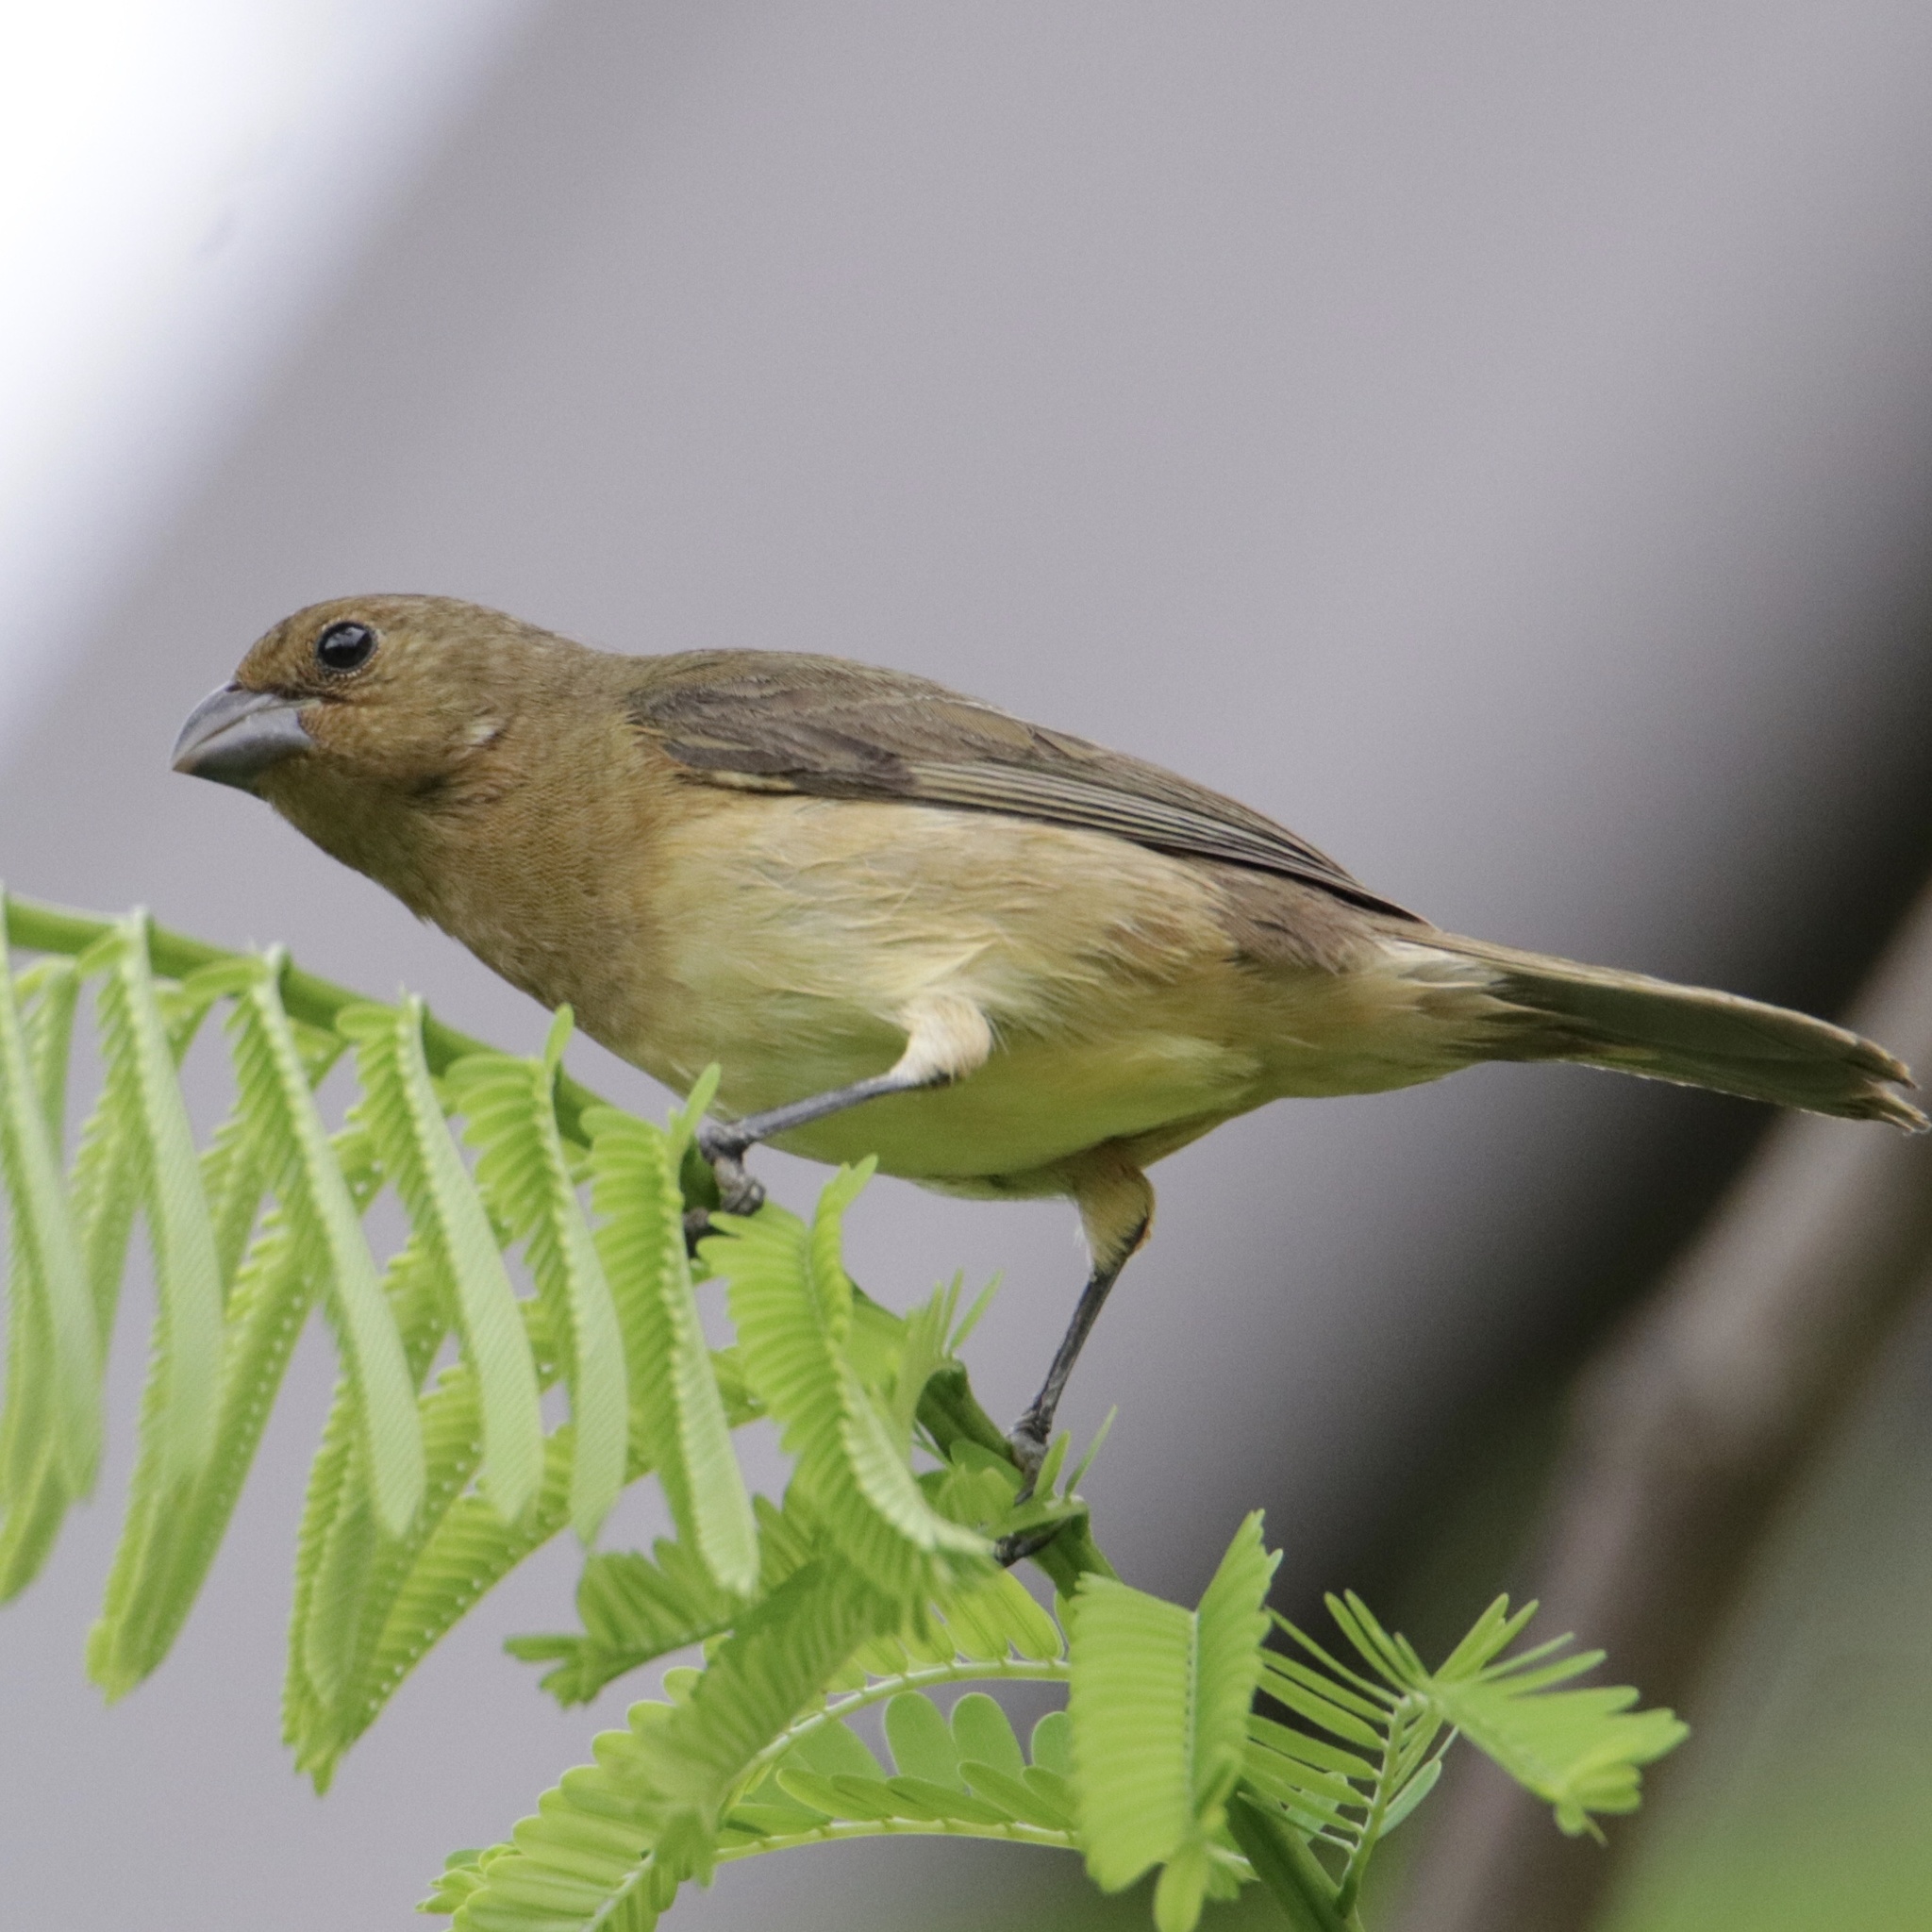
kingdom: Animalia
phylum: Chordata
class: Aves
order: Passeriformes
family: Thraupidae
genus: Sporophila
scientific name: Sporophila nigricollis
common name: Yellow-bellied seedeater
